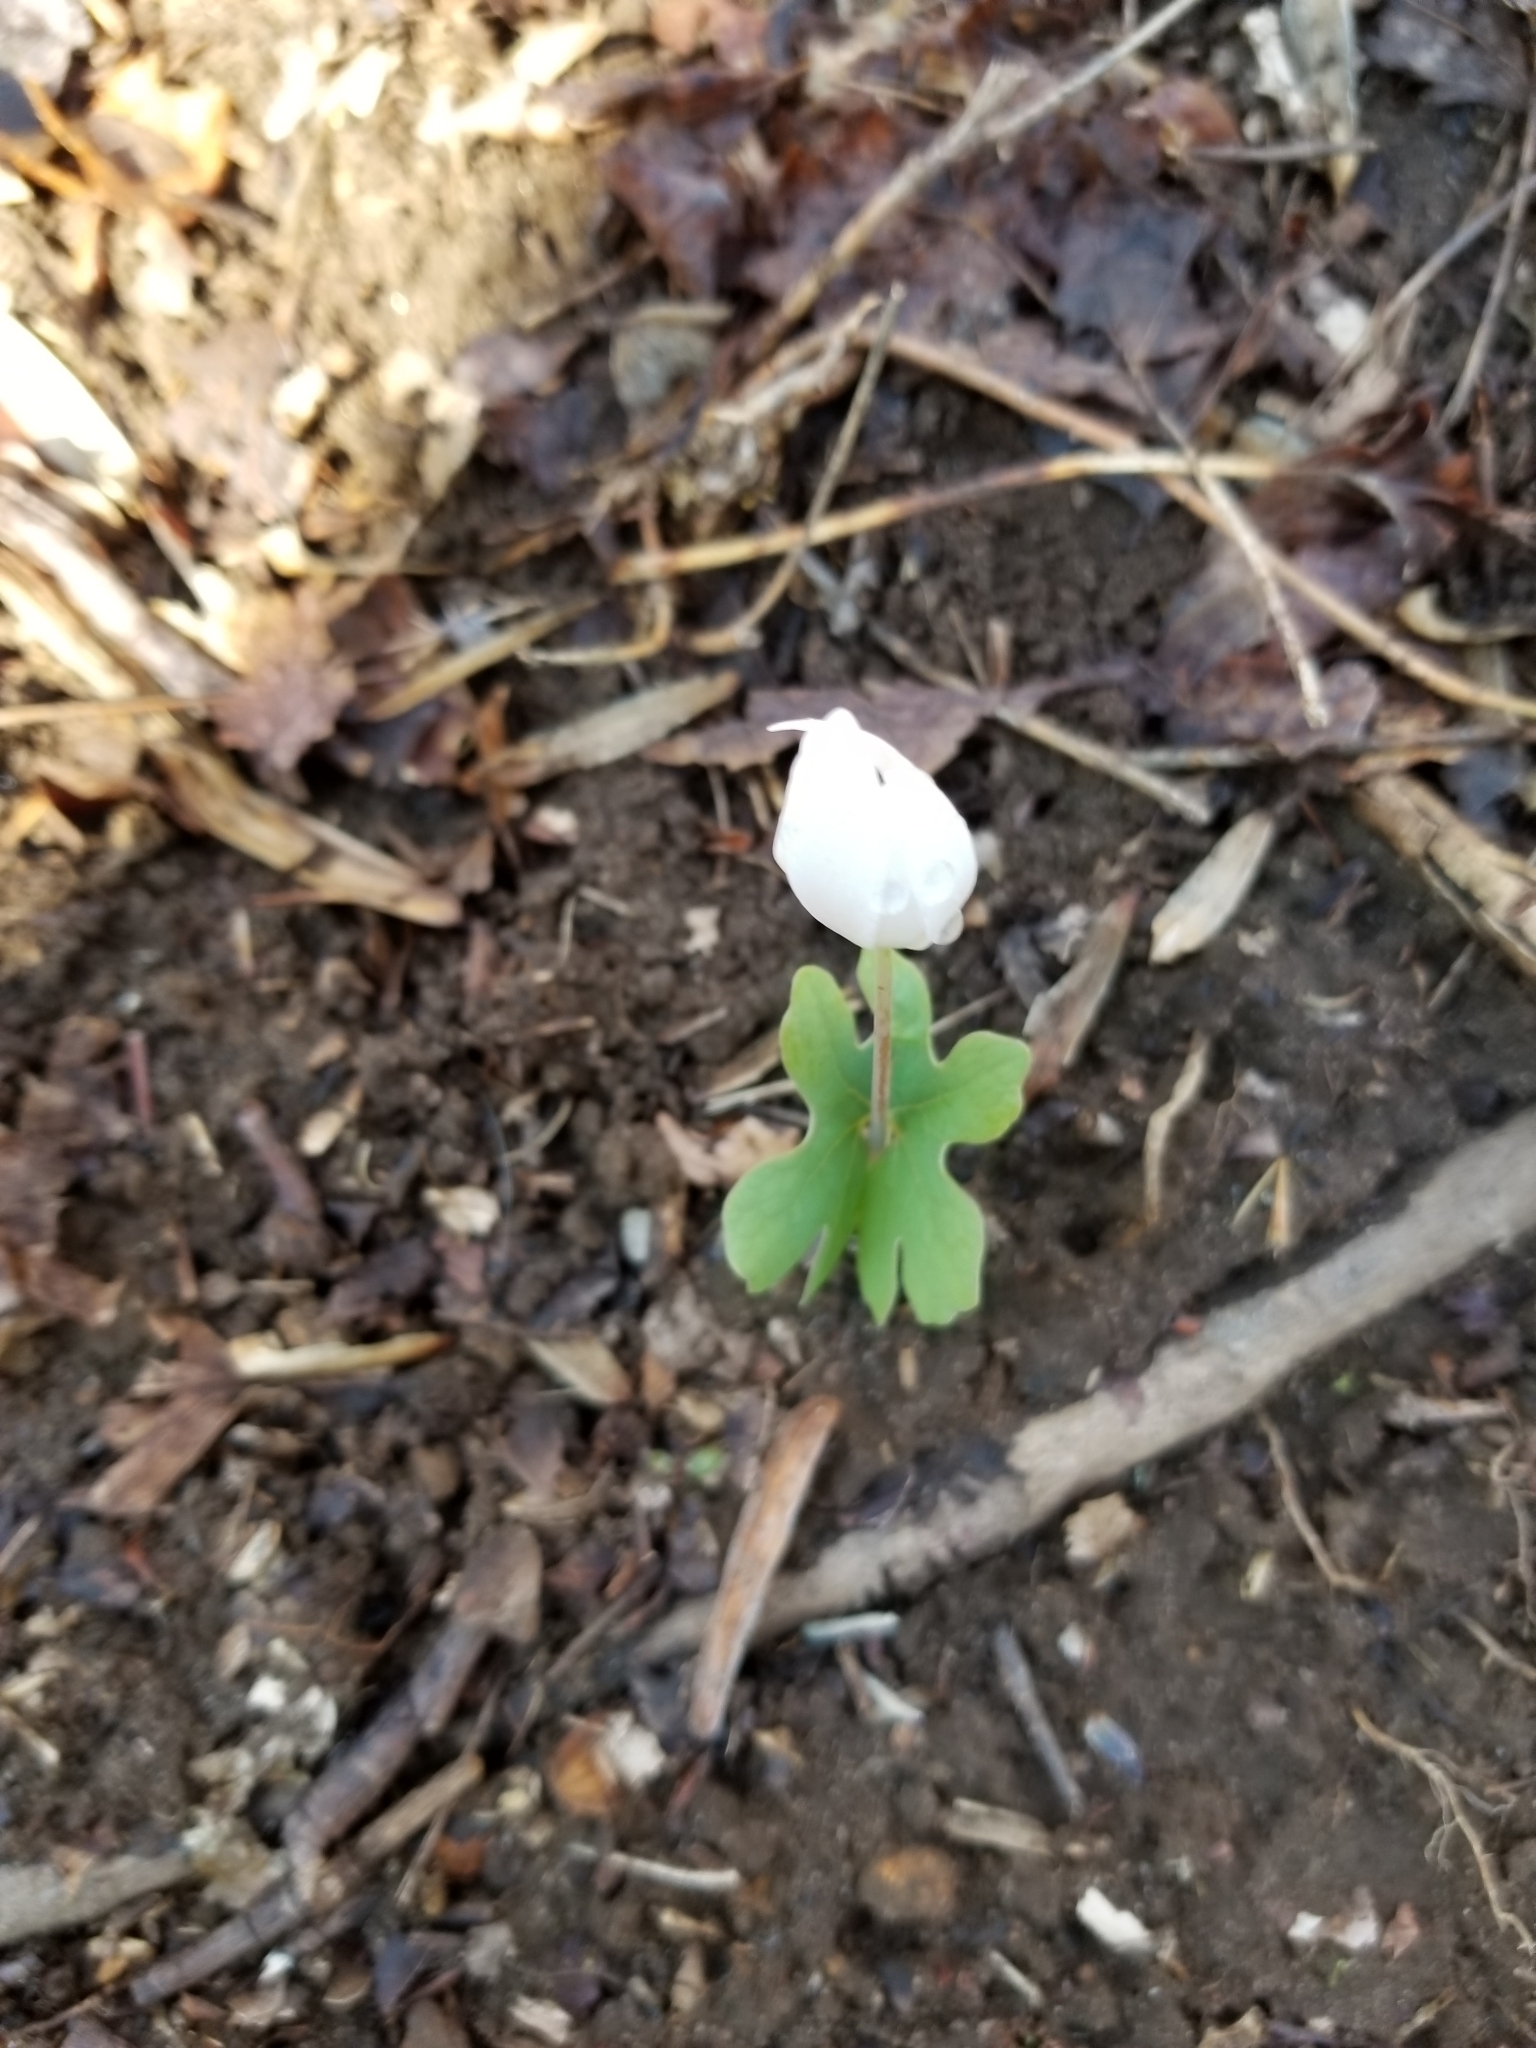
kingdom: Plantae
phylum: Tracheophyta
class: Magnoliopsida
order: Ranunculales
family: Papaveraceae
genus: Sanguinaria
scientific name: Sanguinaria canadensis
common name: Bloodroot
